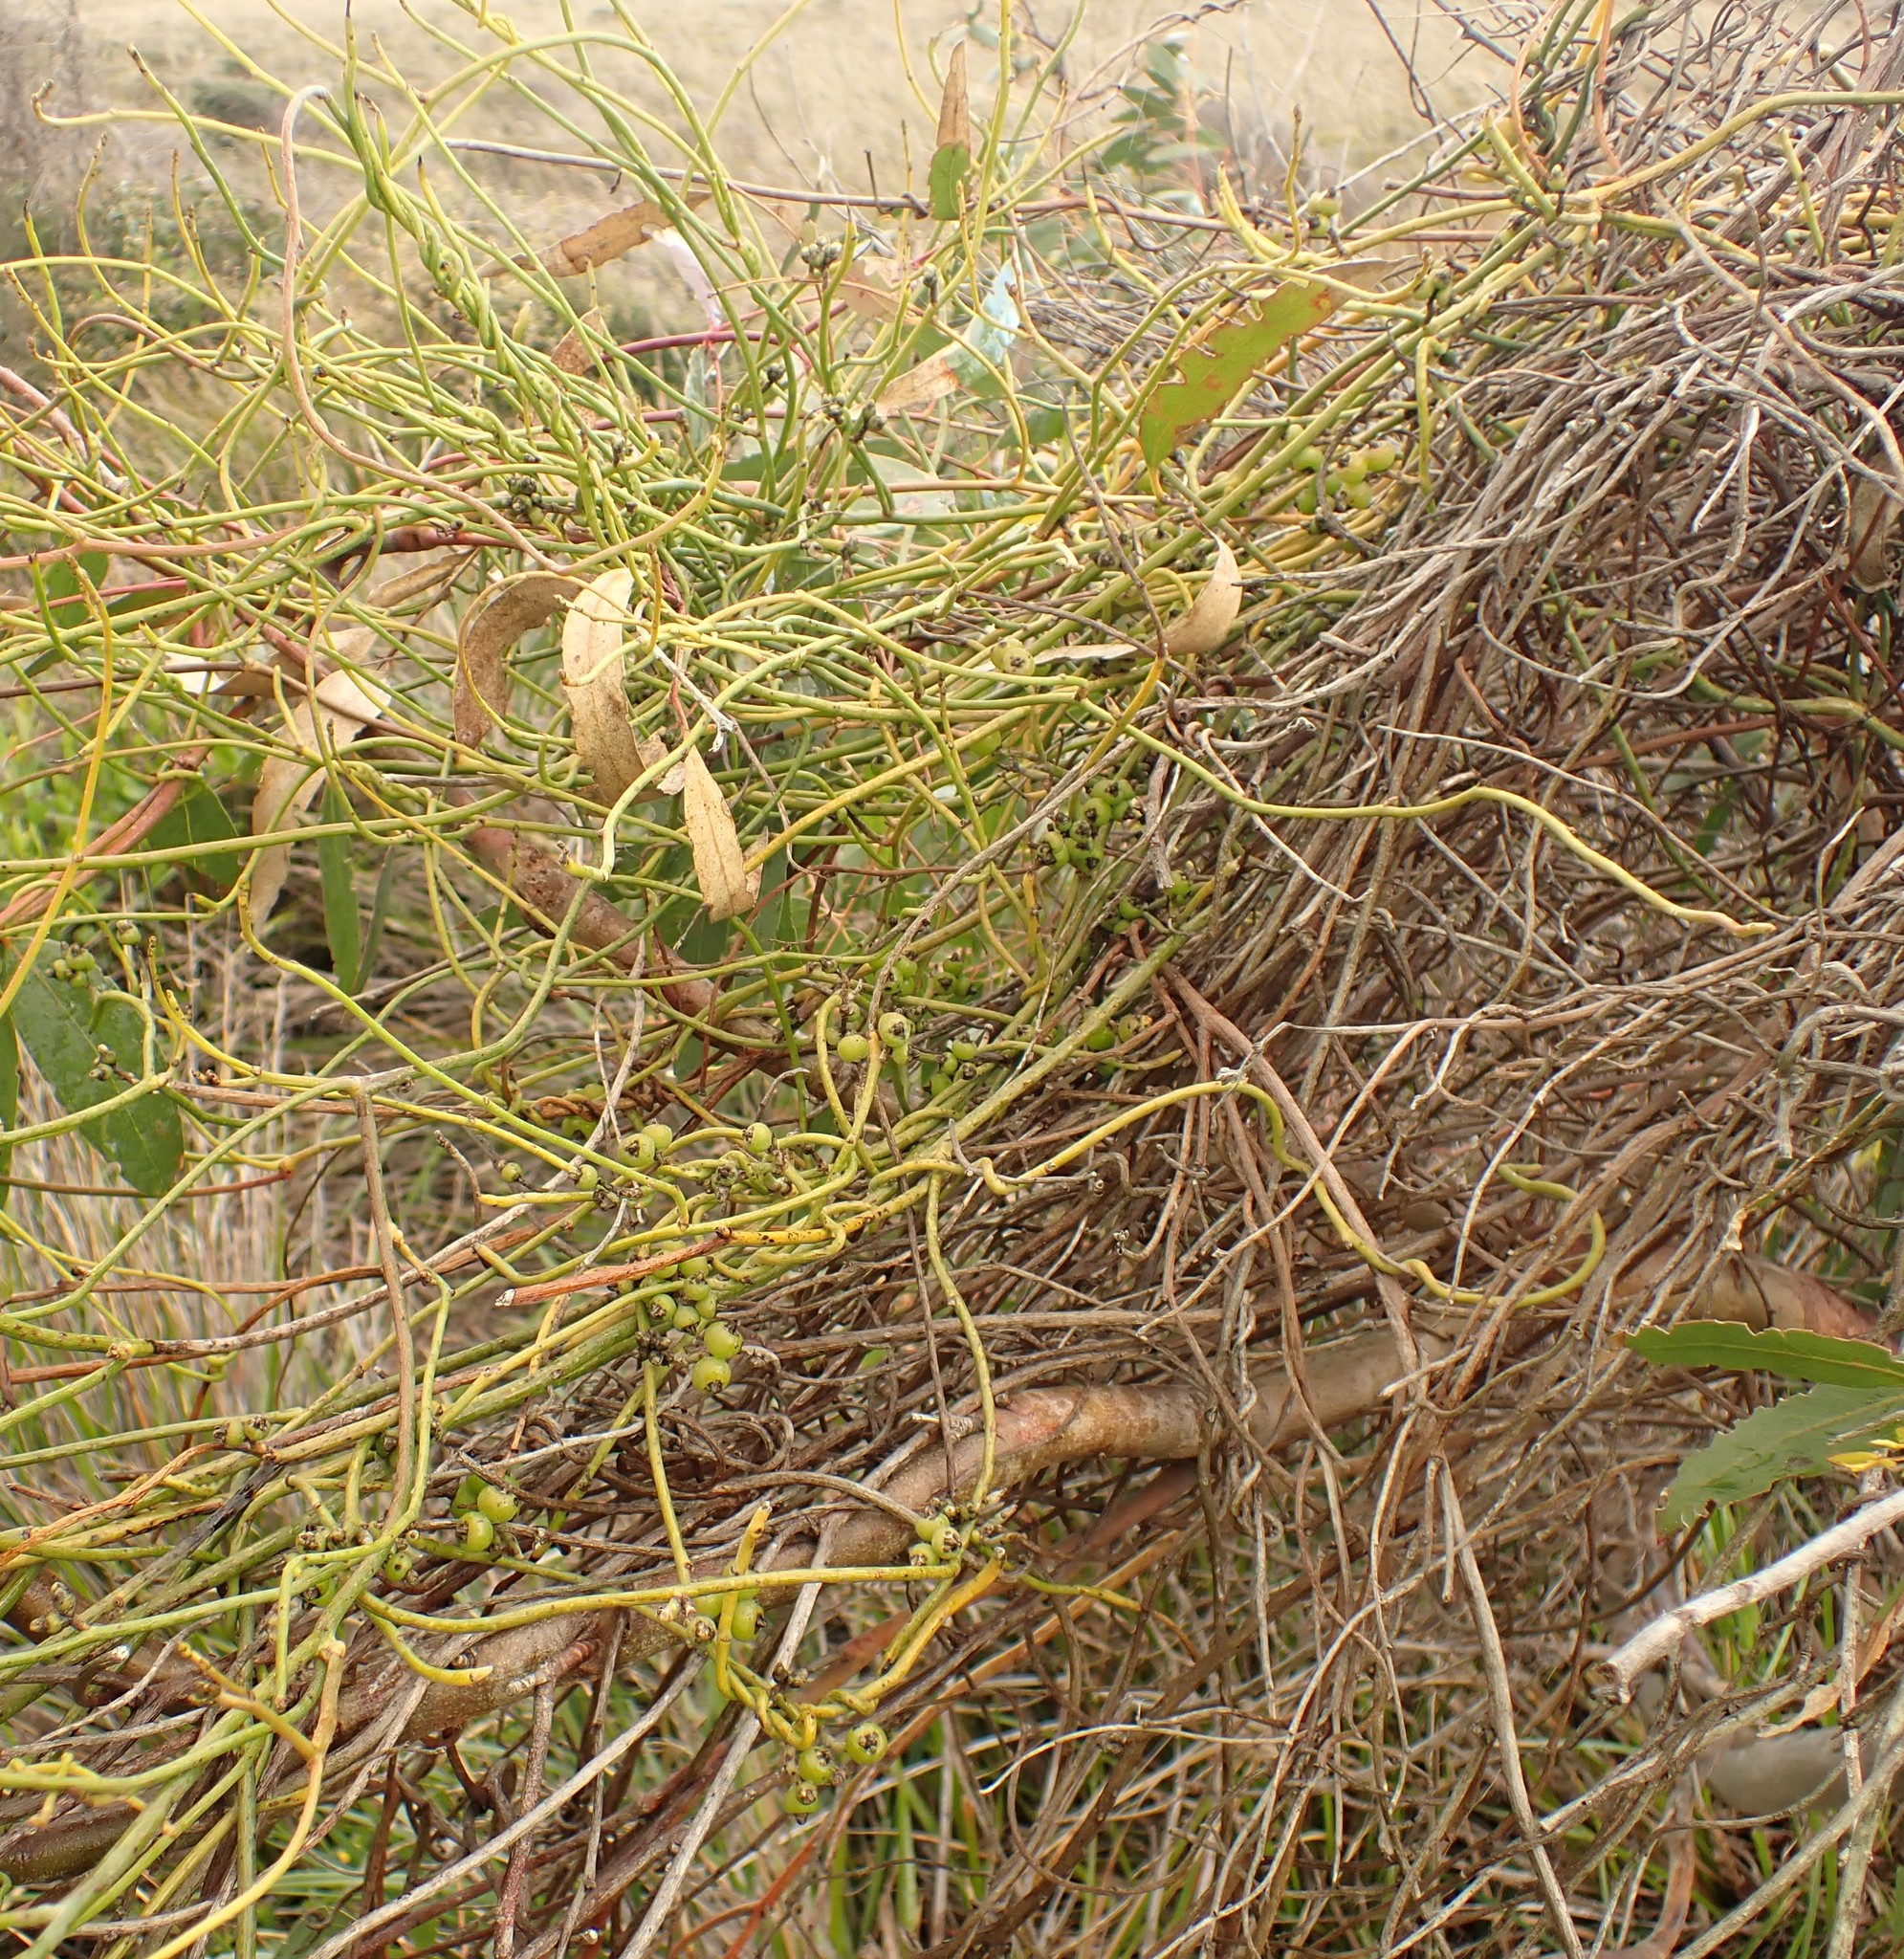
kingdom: Plantae
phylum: Tracheophyta
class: Magnoliopsida
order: Laurales
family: Lauraceae
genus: Cassytha
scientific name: Cassytha melantha
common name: Mallee stranglevine
